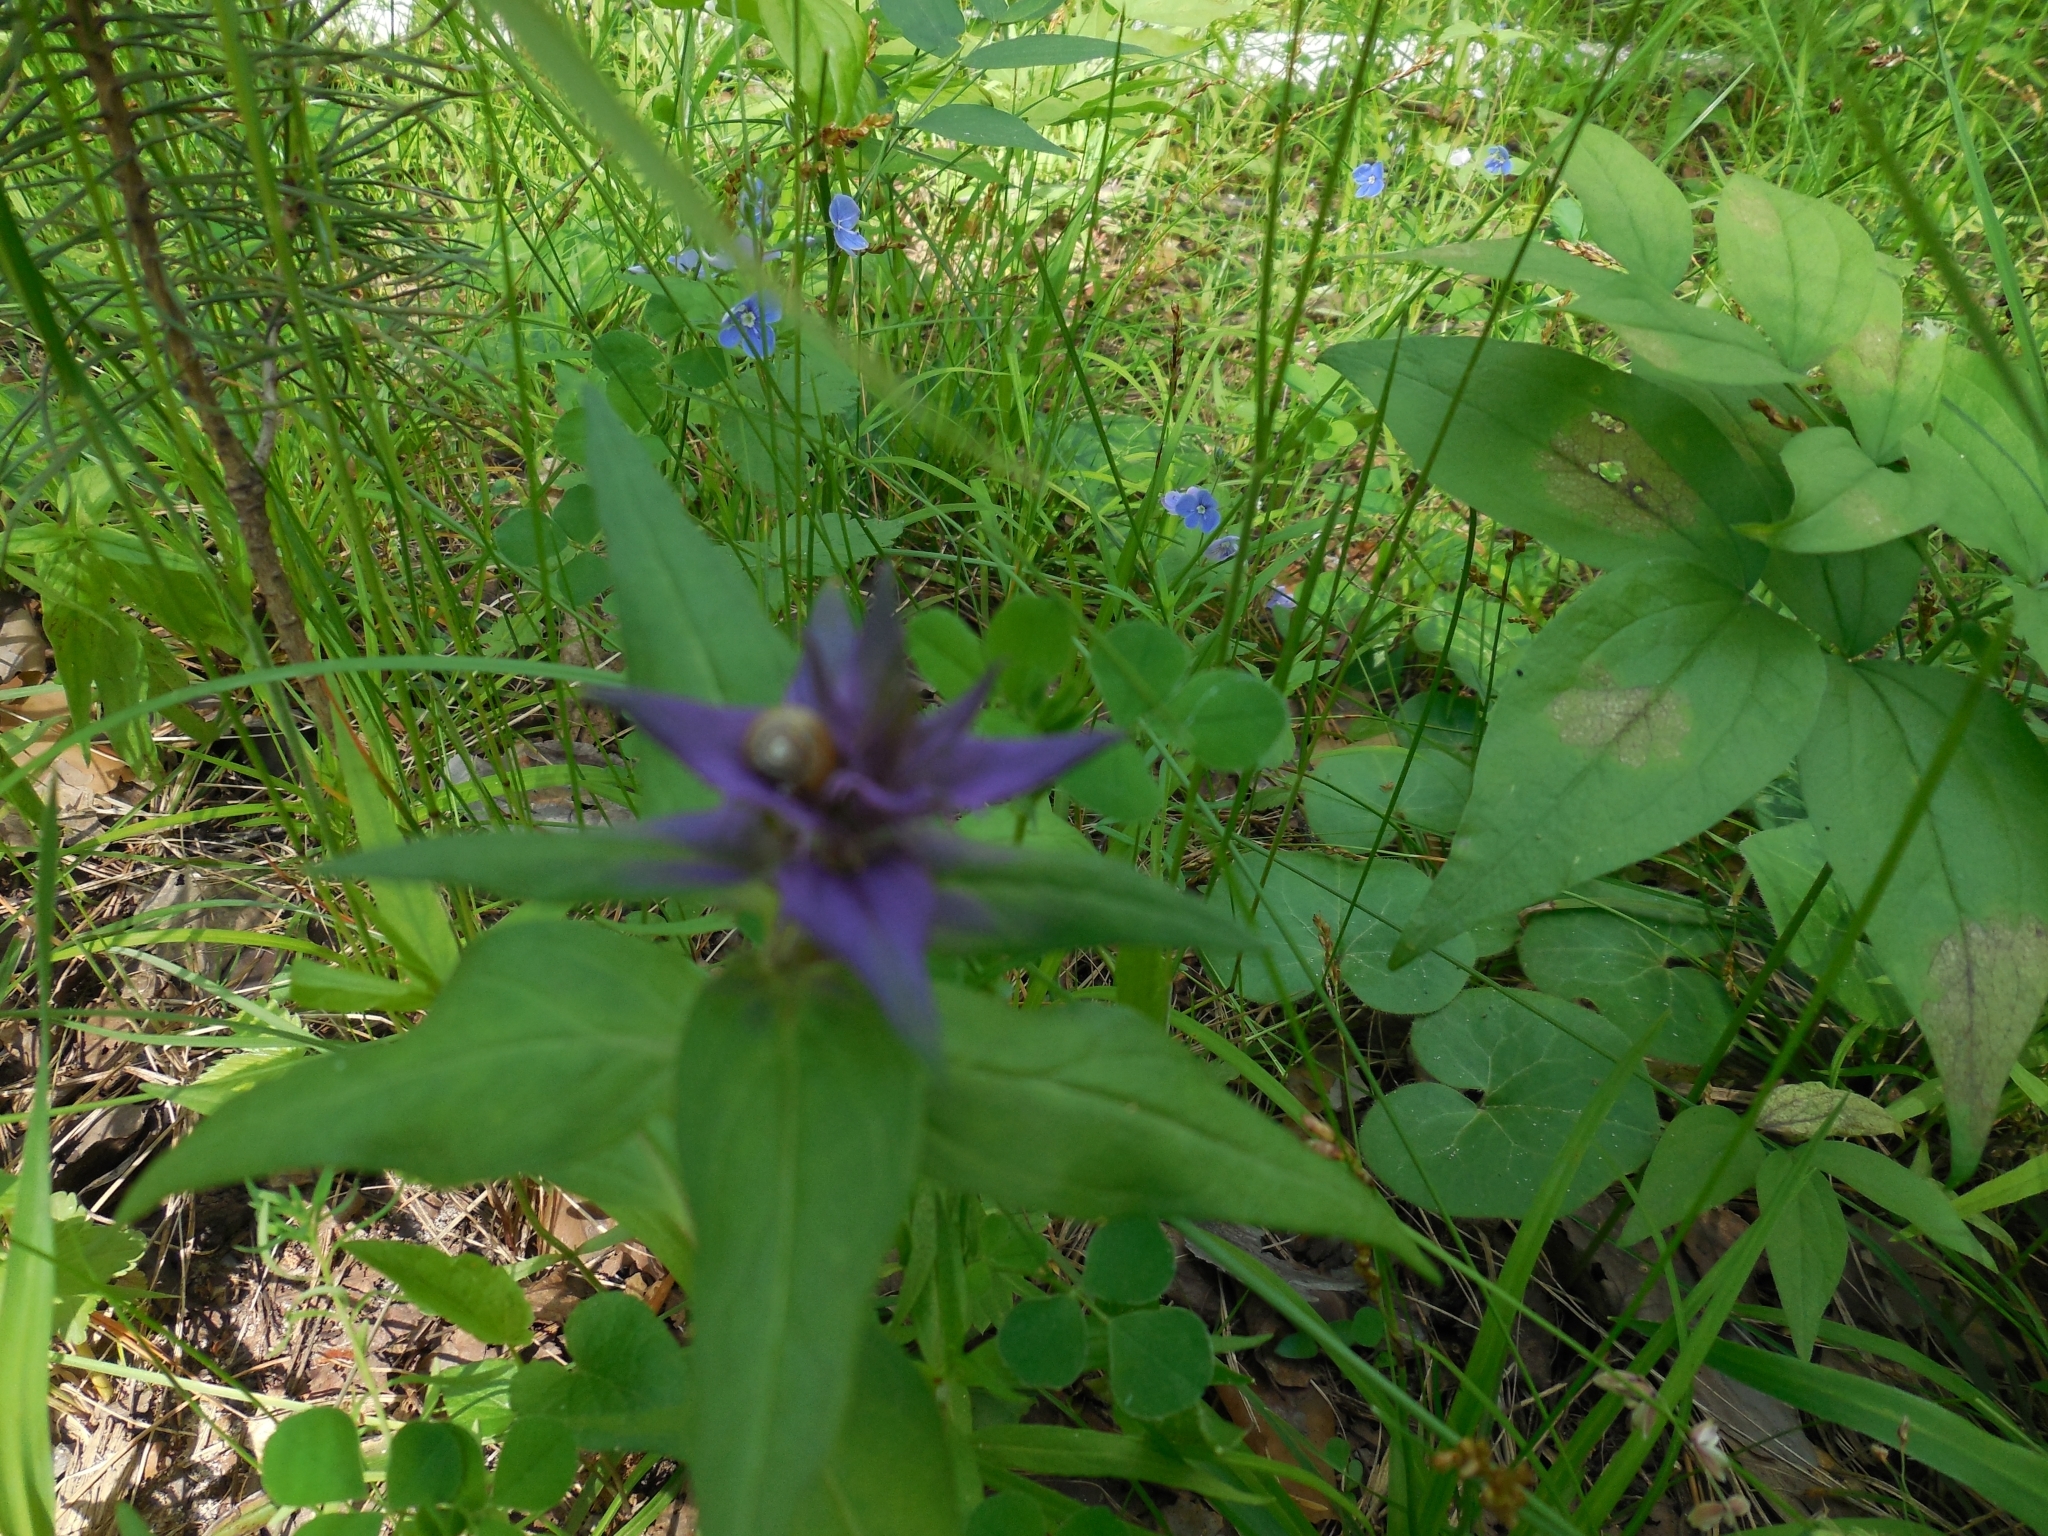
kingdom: Plantae
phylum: Tracheophyta
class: Magnoliopsida
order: Lamiales
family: Orobanchaceae
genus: Melampyrum
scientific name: Melampyrum nemorosum
